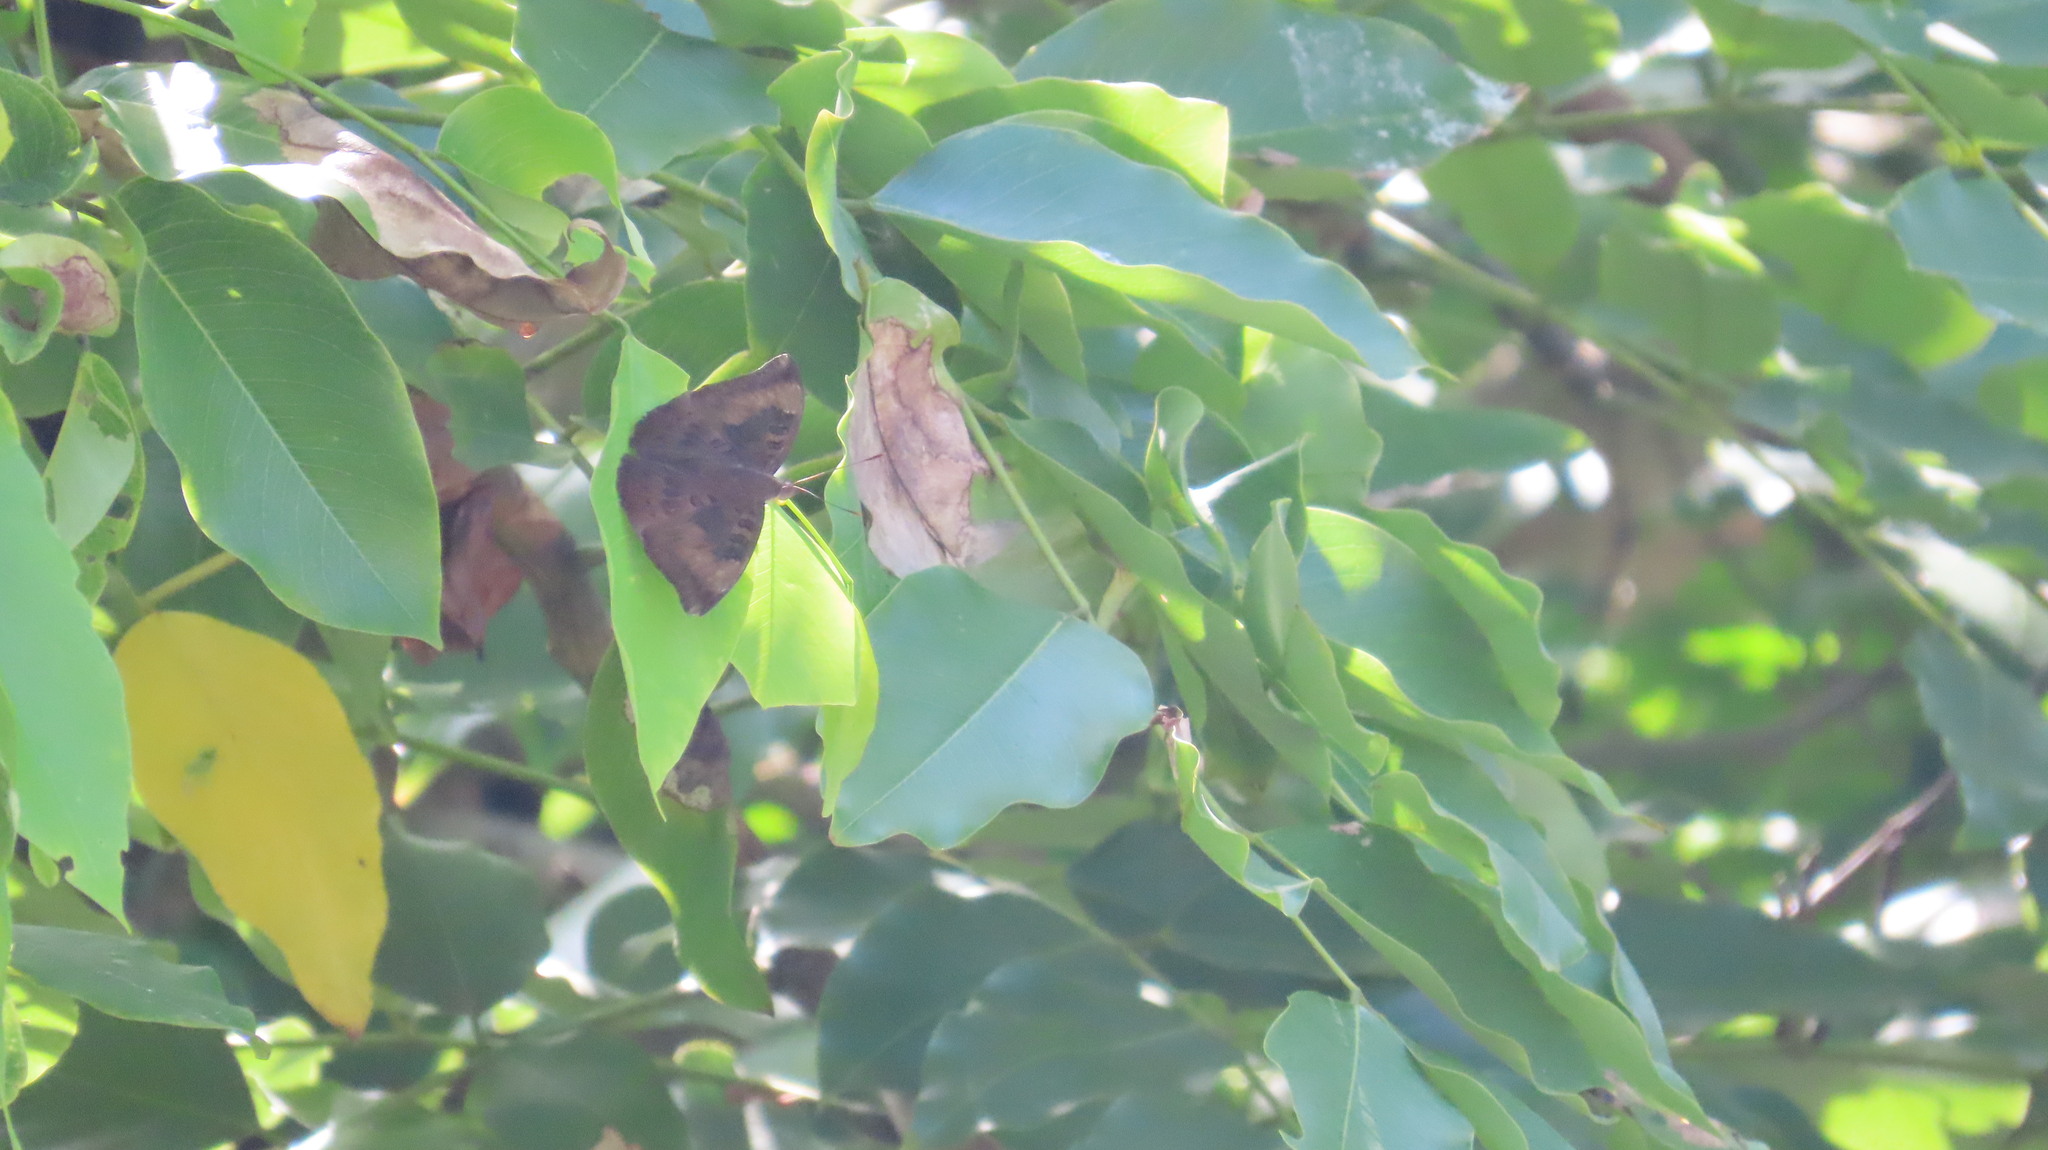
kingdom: Animalia
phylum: Arthropoda
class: Insecta
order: Lepidoptera
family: Nymphalidae
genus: Euthalia
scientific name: Euthalia aconthea
